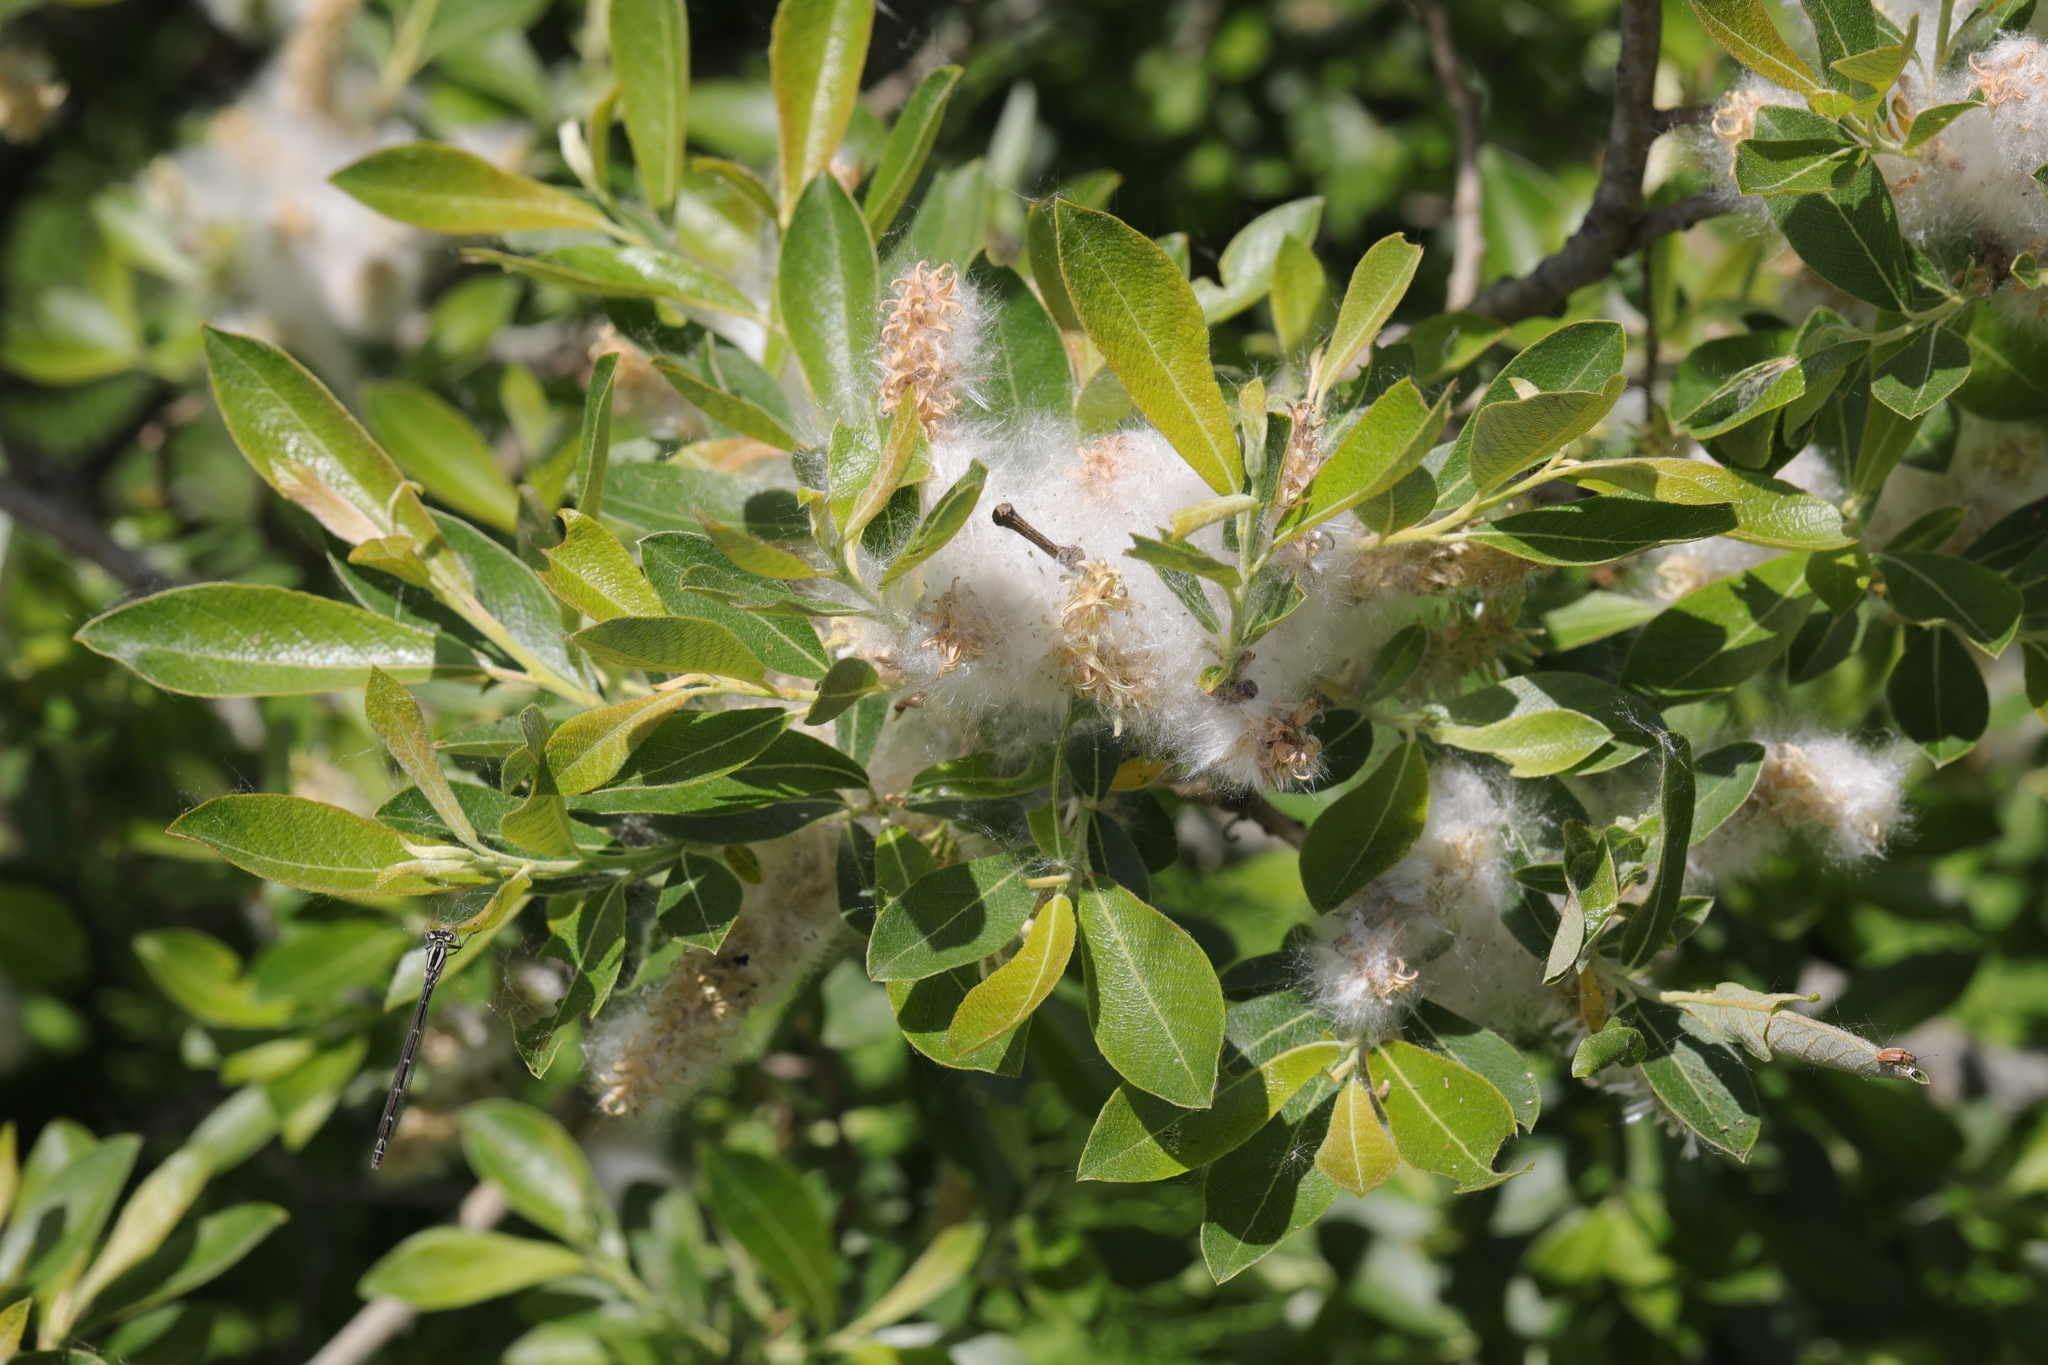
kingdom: Plantae
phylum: Tracheophyta
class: Magnoliopsida
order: Malpighiales
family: Salicaceae
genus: Salix
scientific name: Salix atrocinerea
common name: Rusty willow
